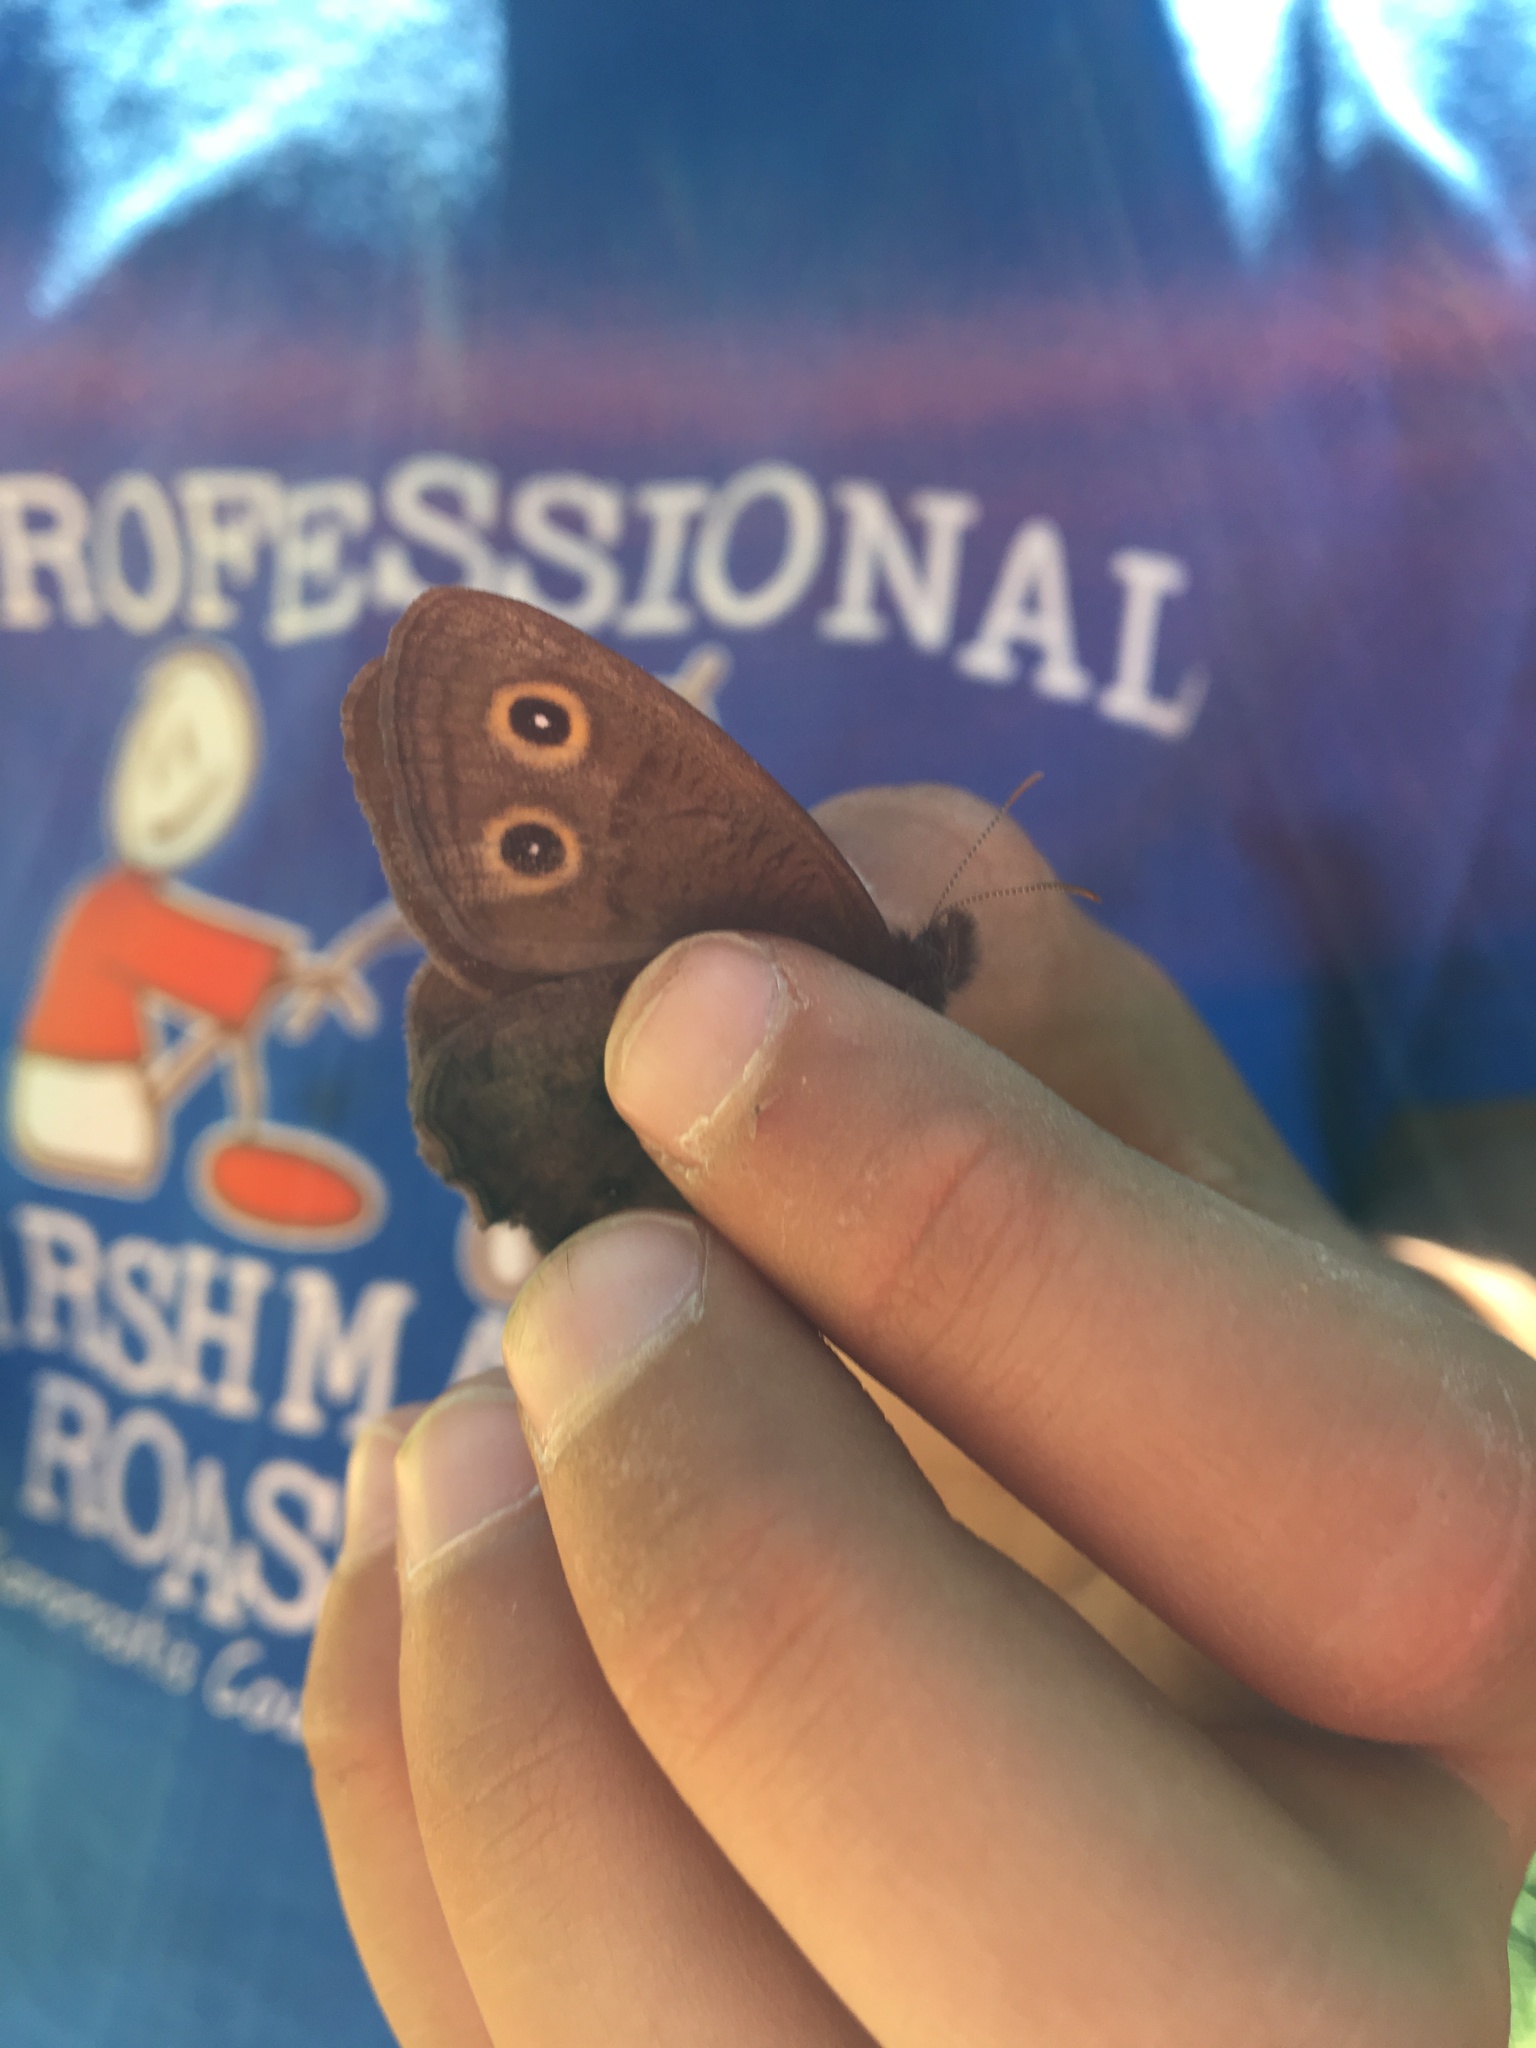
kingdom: Animalia
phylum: Arthropoda
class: Insecta
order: Lepidoptera
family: Nymphalidae
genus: Cercyonis
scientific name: Cercyonis pegala
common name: Common wood-nymph
